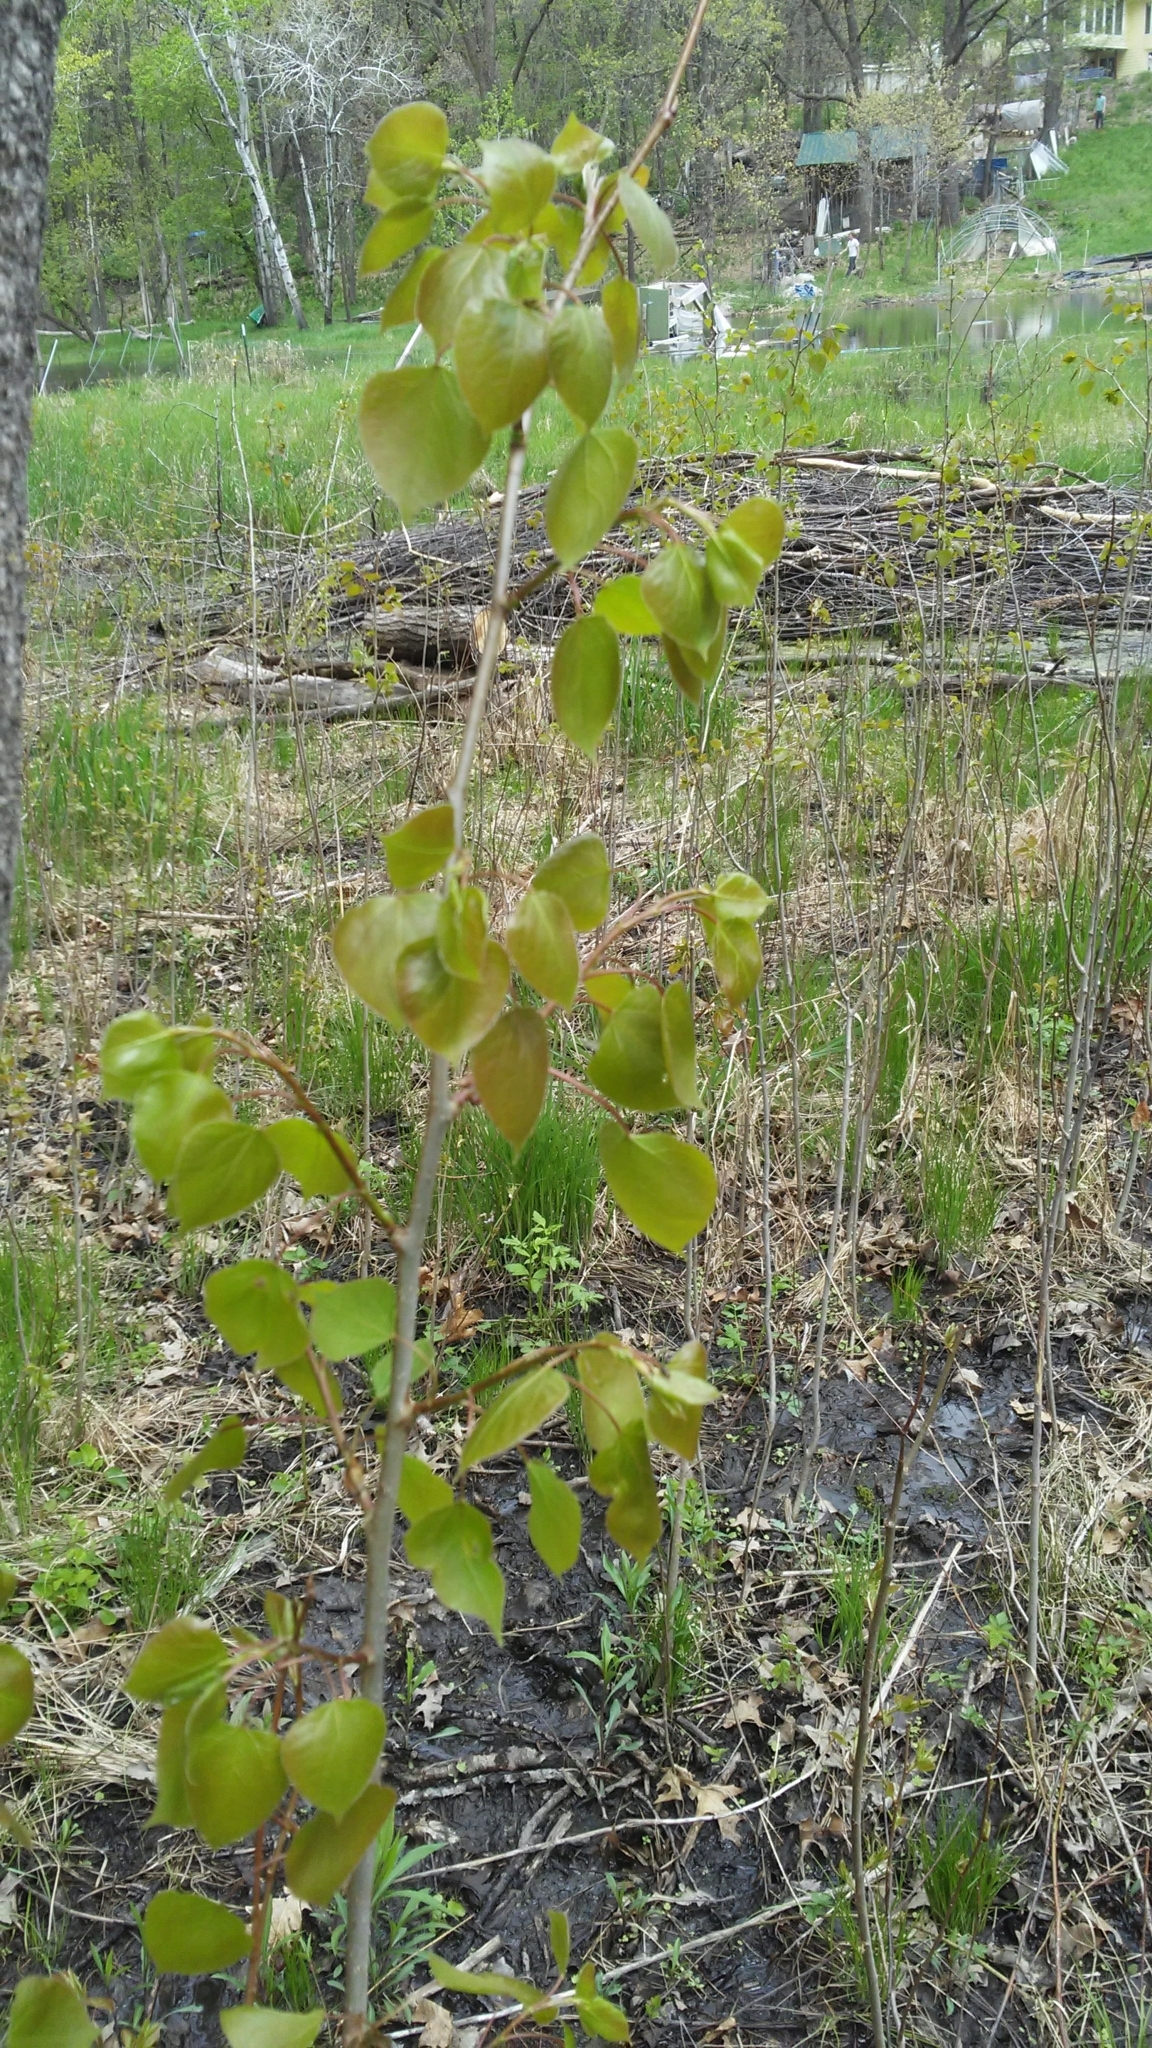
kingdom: Plantae
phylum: Tracheophyta
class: Magnoliopsida
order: Malpighiales
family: Salicaceae
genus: Populus
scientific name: Populus tremuloides
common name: Quaking aspen
